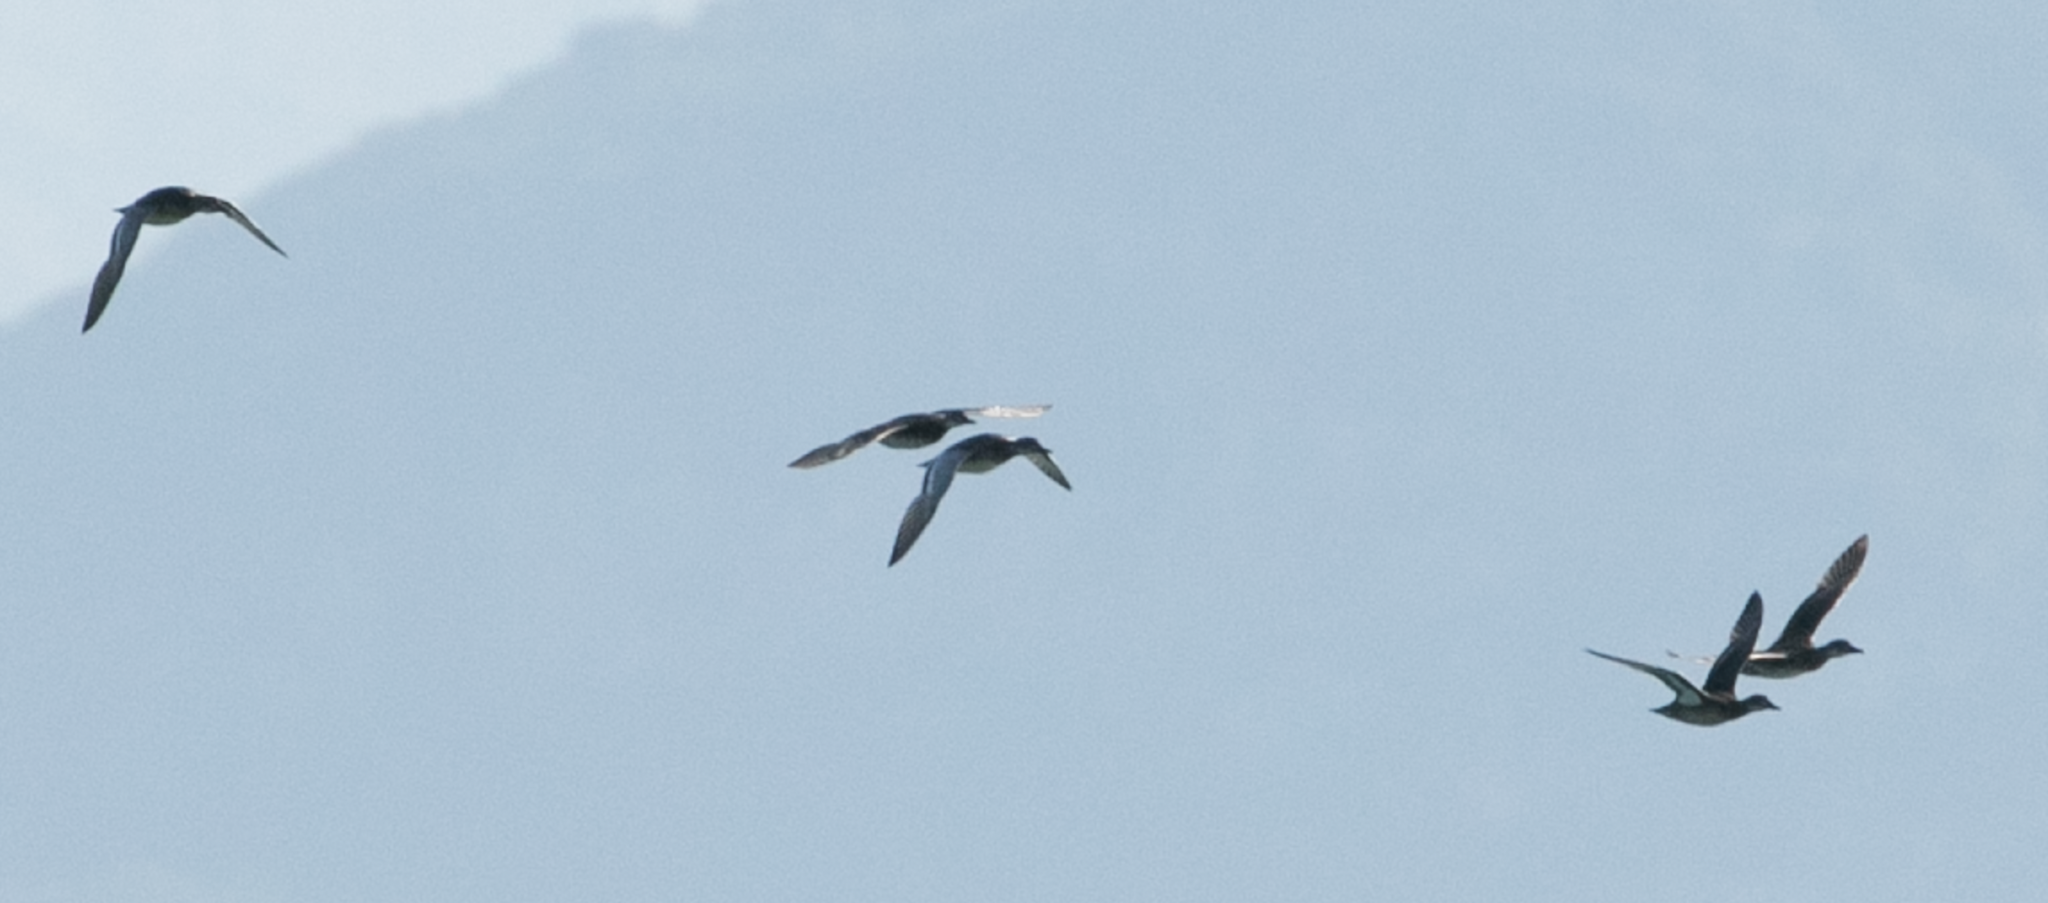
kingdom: Animalia
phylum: Chordata
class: Aves
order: Anseriformes
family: Anatidae
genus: Spatula
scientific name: Spatula querquedula
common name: Garganey
